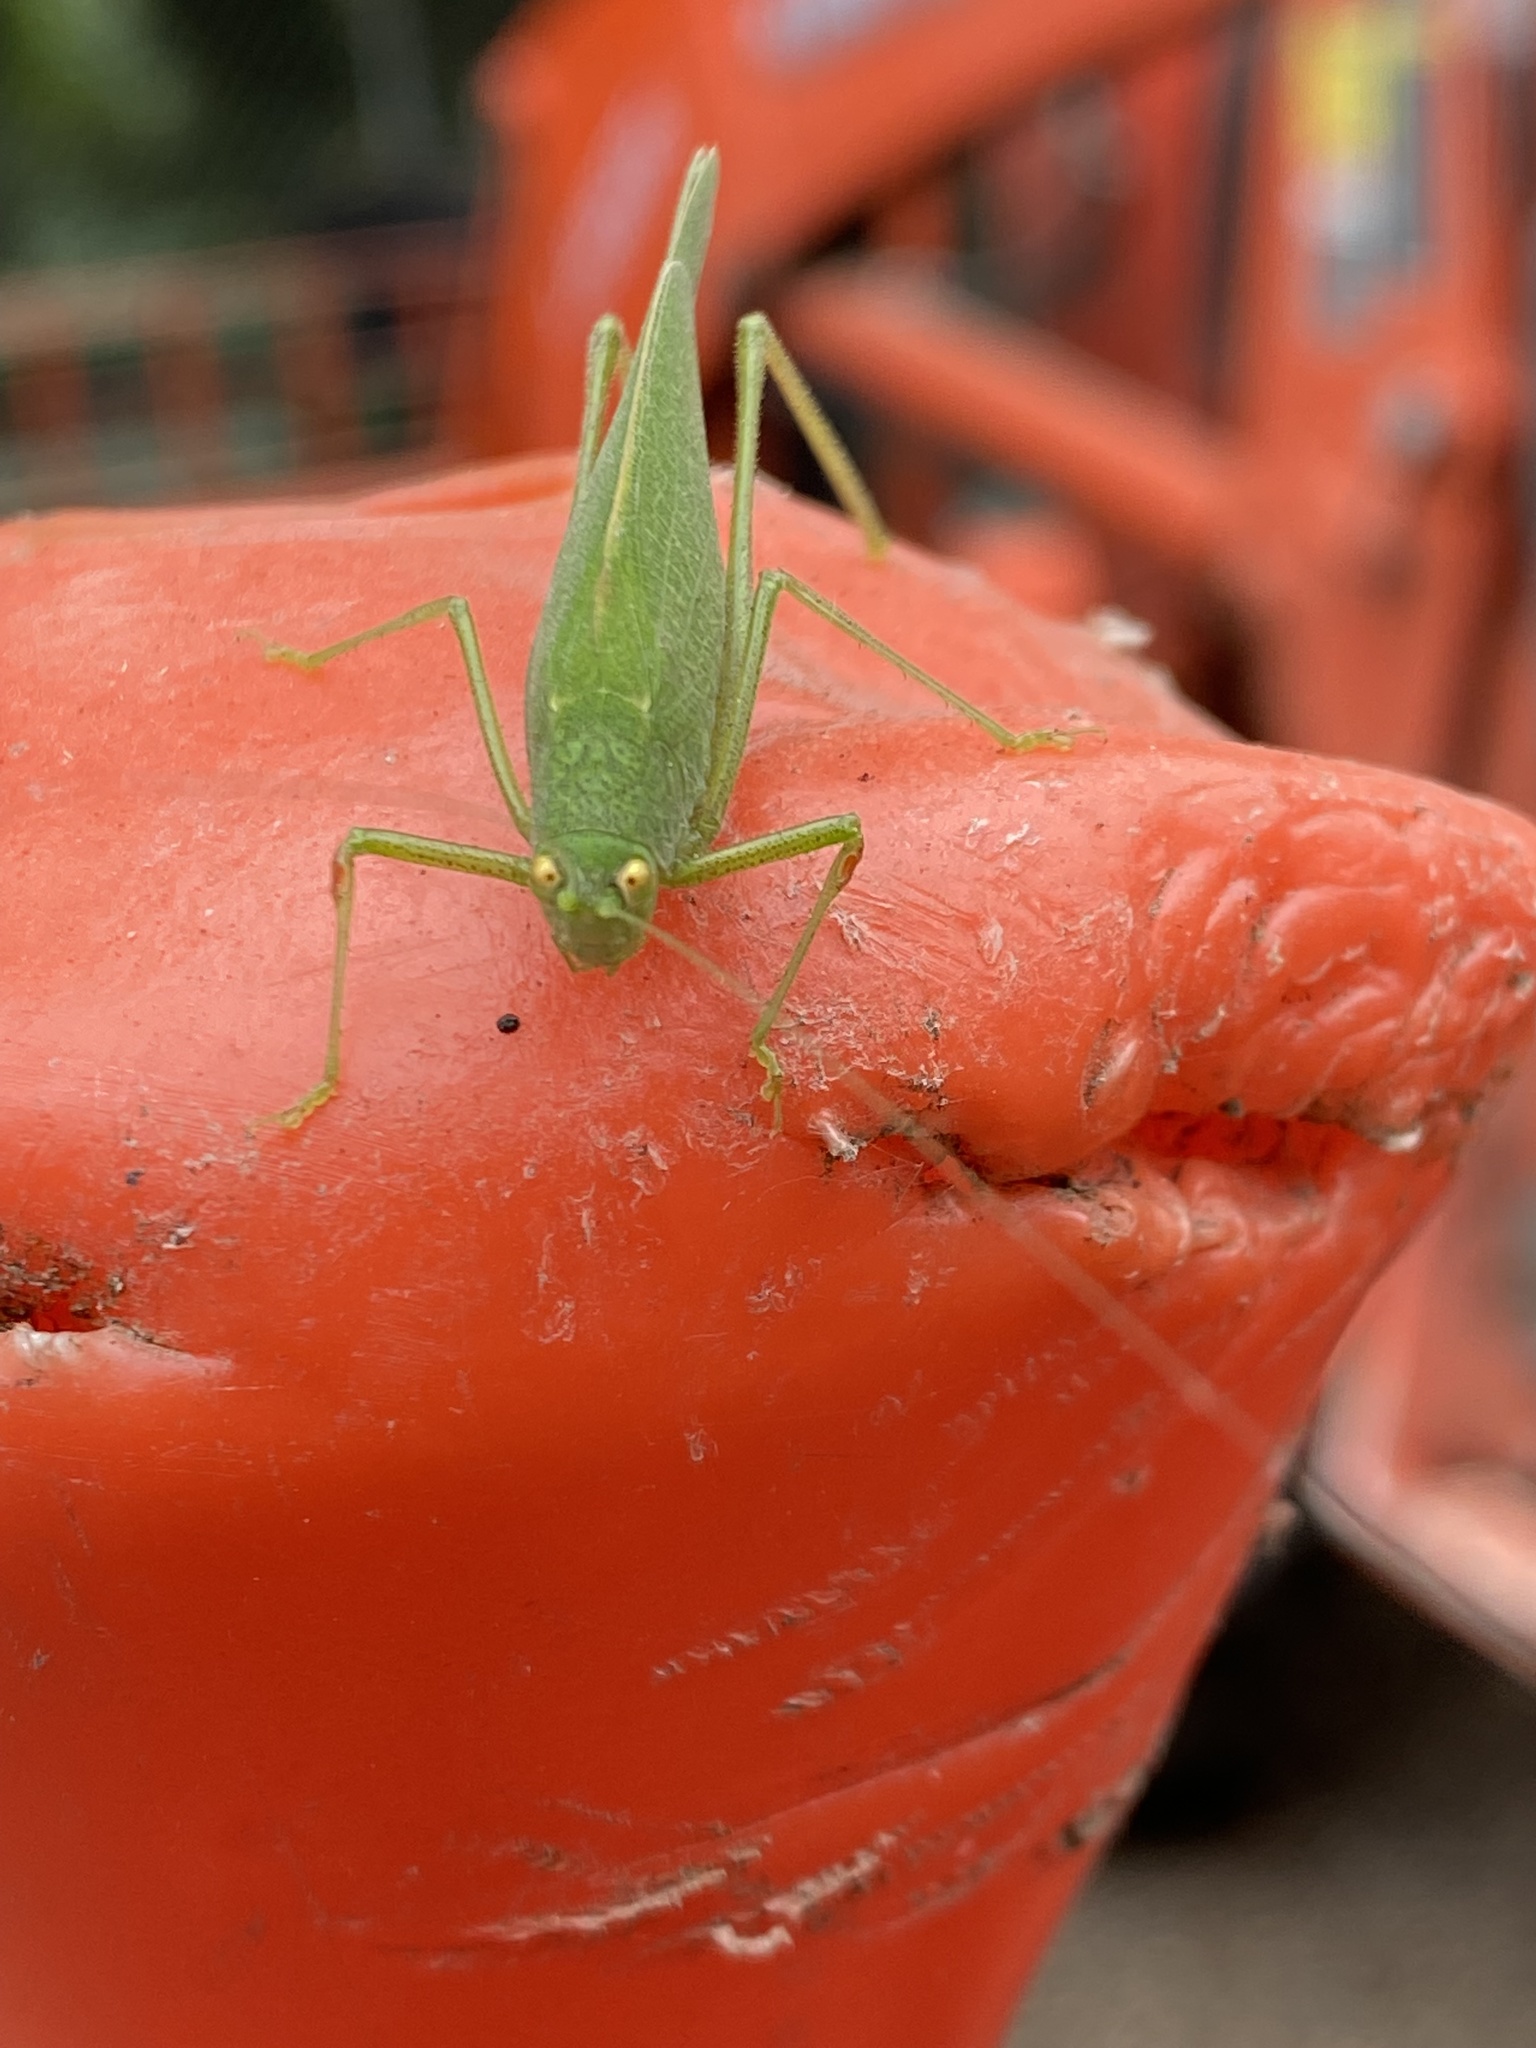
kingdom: Animalia
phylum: Arthropoda
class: Insecta
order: Orthoptera
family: Tettigoniidae
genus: Phaneroptera
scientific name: Phaneroptera nana
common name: Southern sickle bush-cricket
